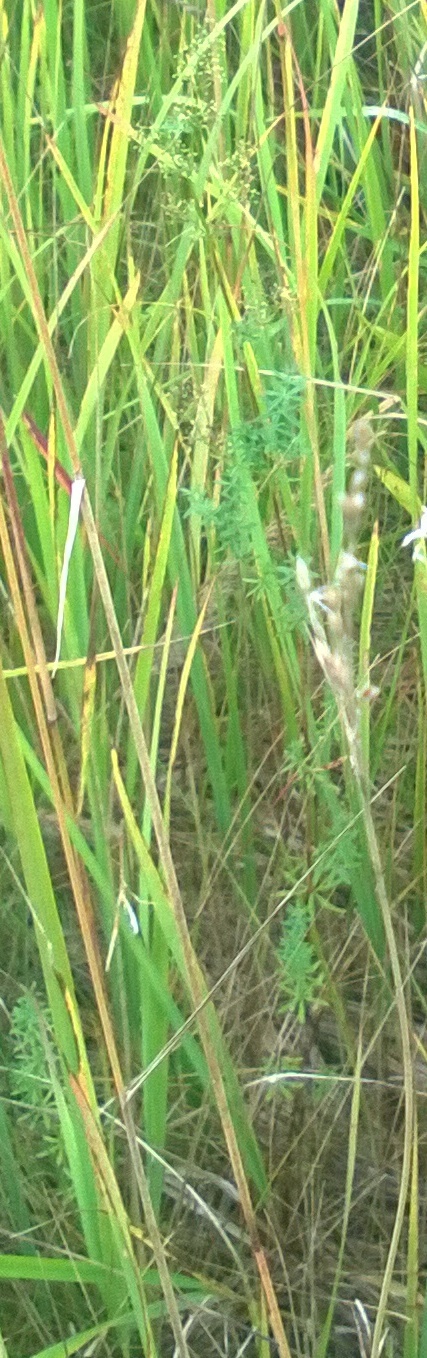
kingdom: Plantae
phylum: Tracheophyta
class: Magnoliopsida
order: Gentianales
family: Rubiaceae
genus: Galium
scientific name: Galium mollugo
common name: Hedge bedstraw
